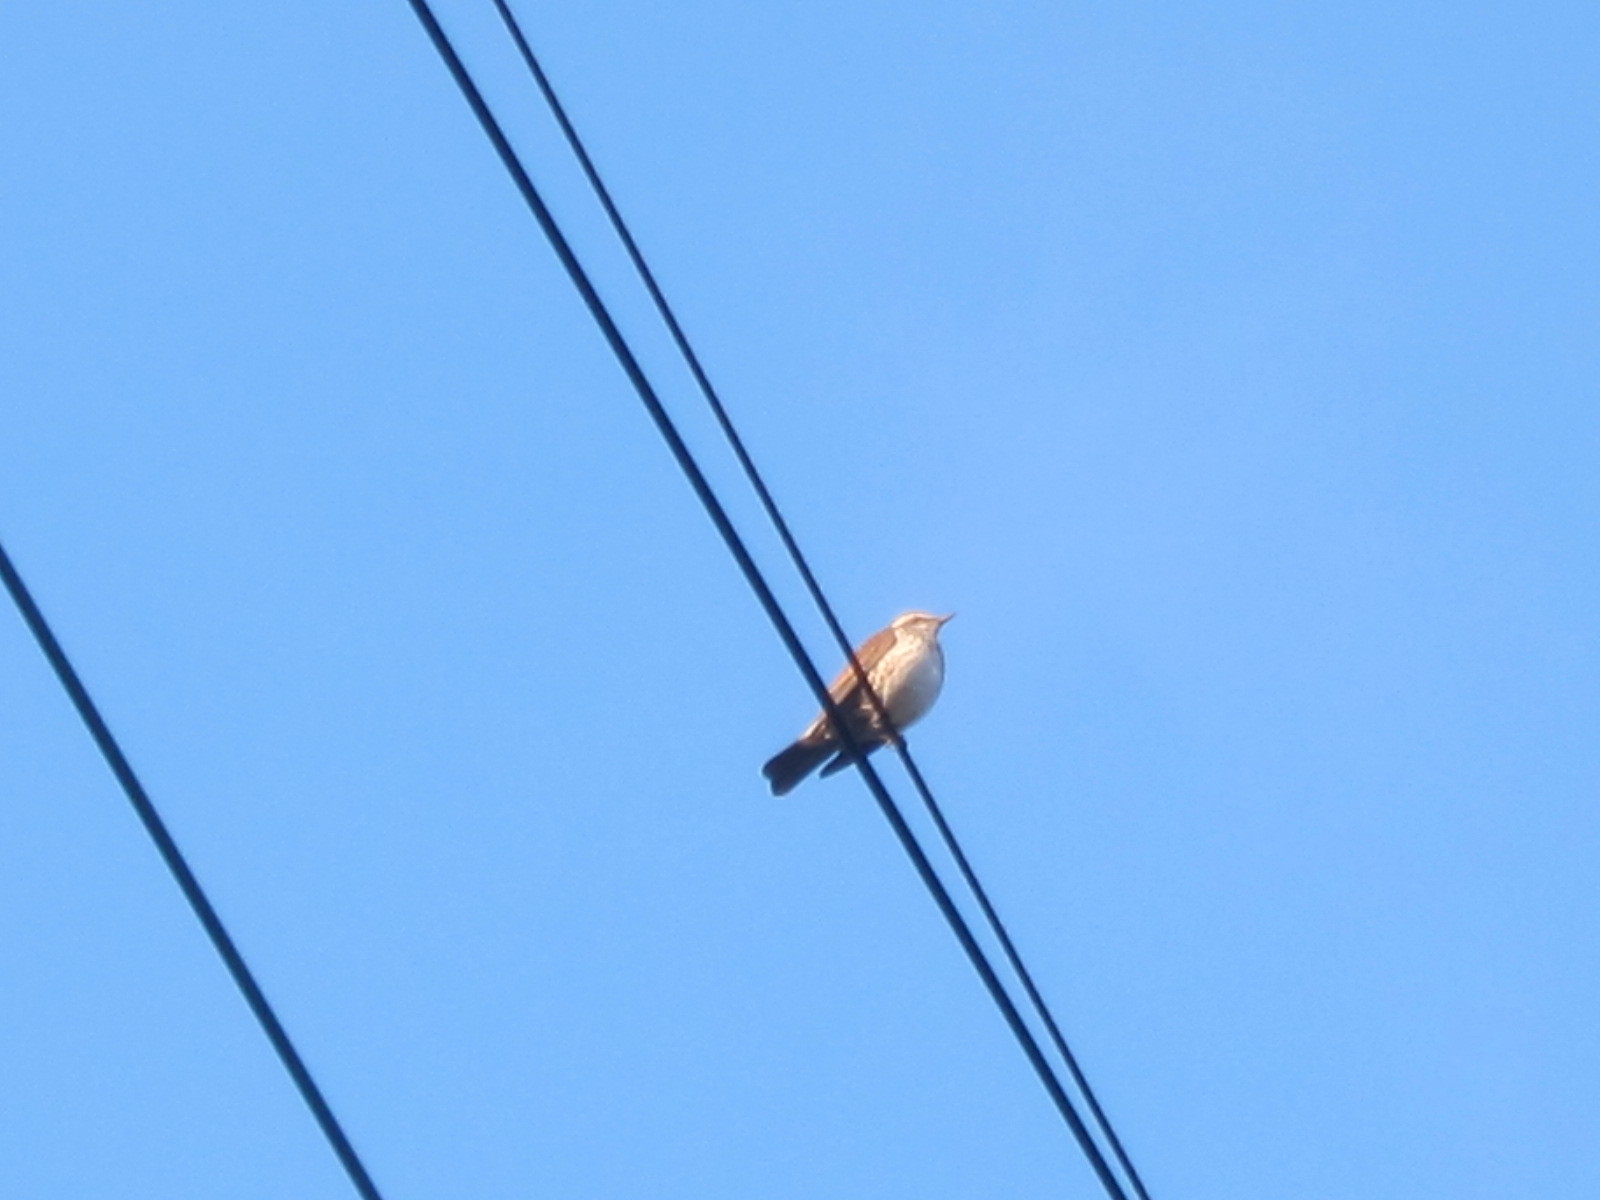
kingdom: Animalia
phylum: Chordata
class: Aves
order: Passeriformes
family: Turdidae
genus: Turdus
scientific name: Turdus eunomus
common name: Dusky thrush
